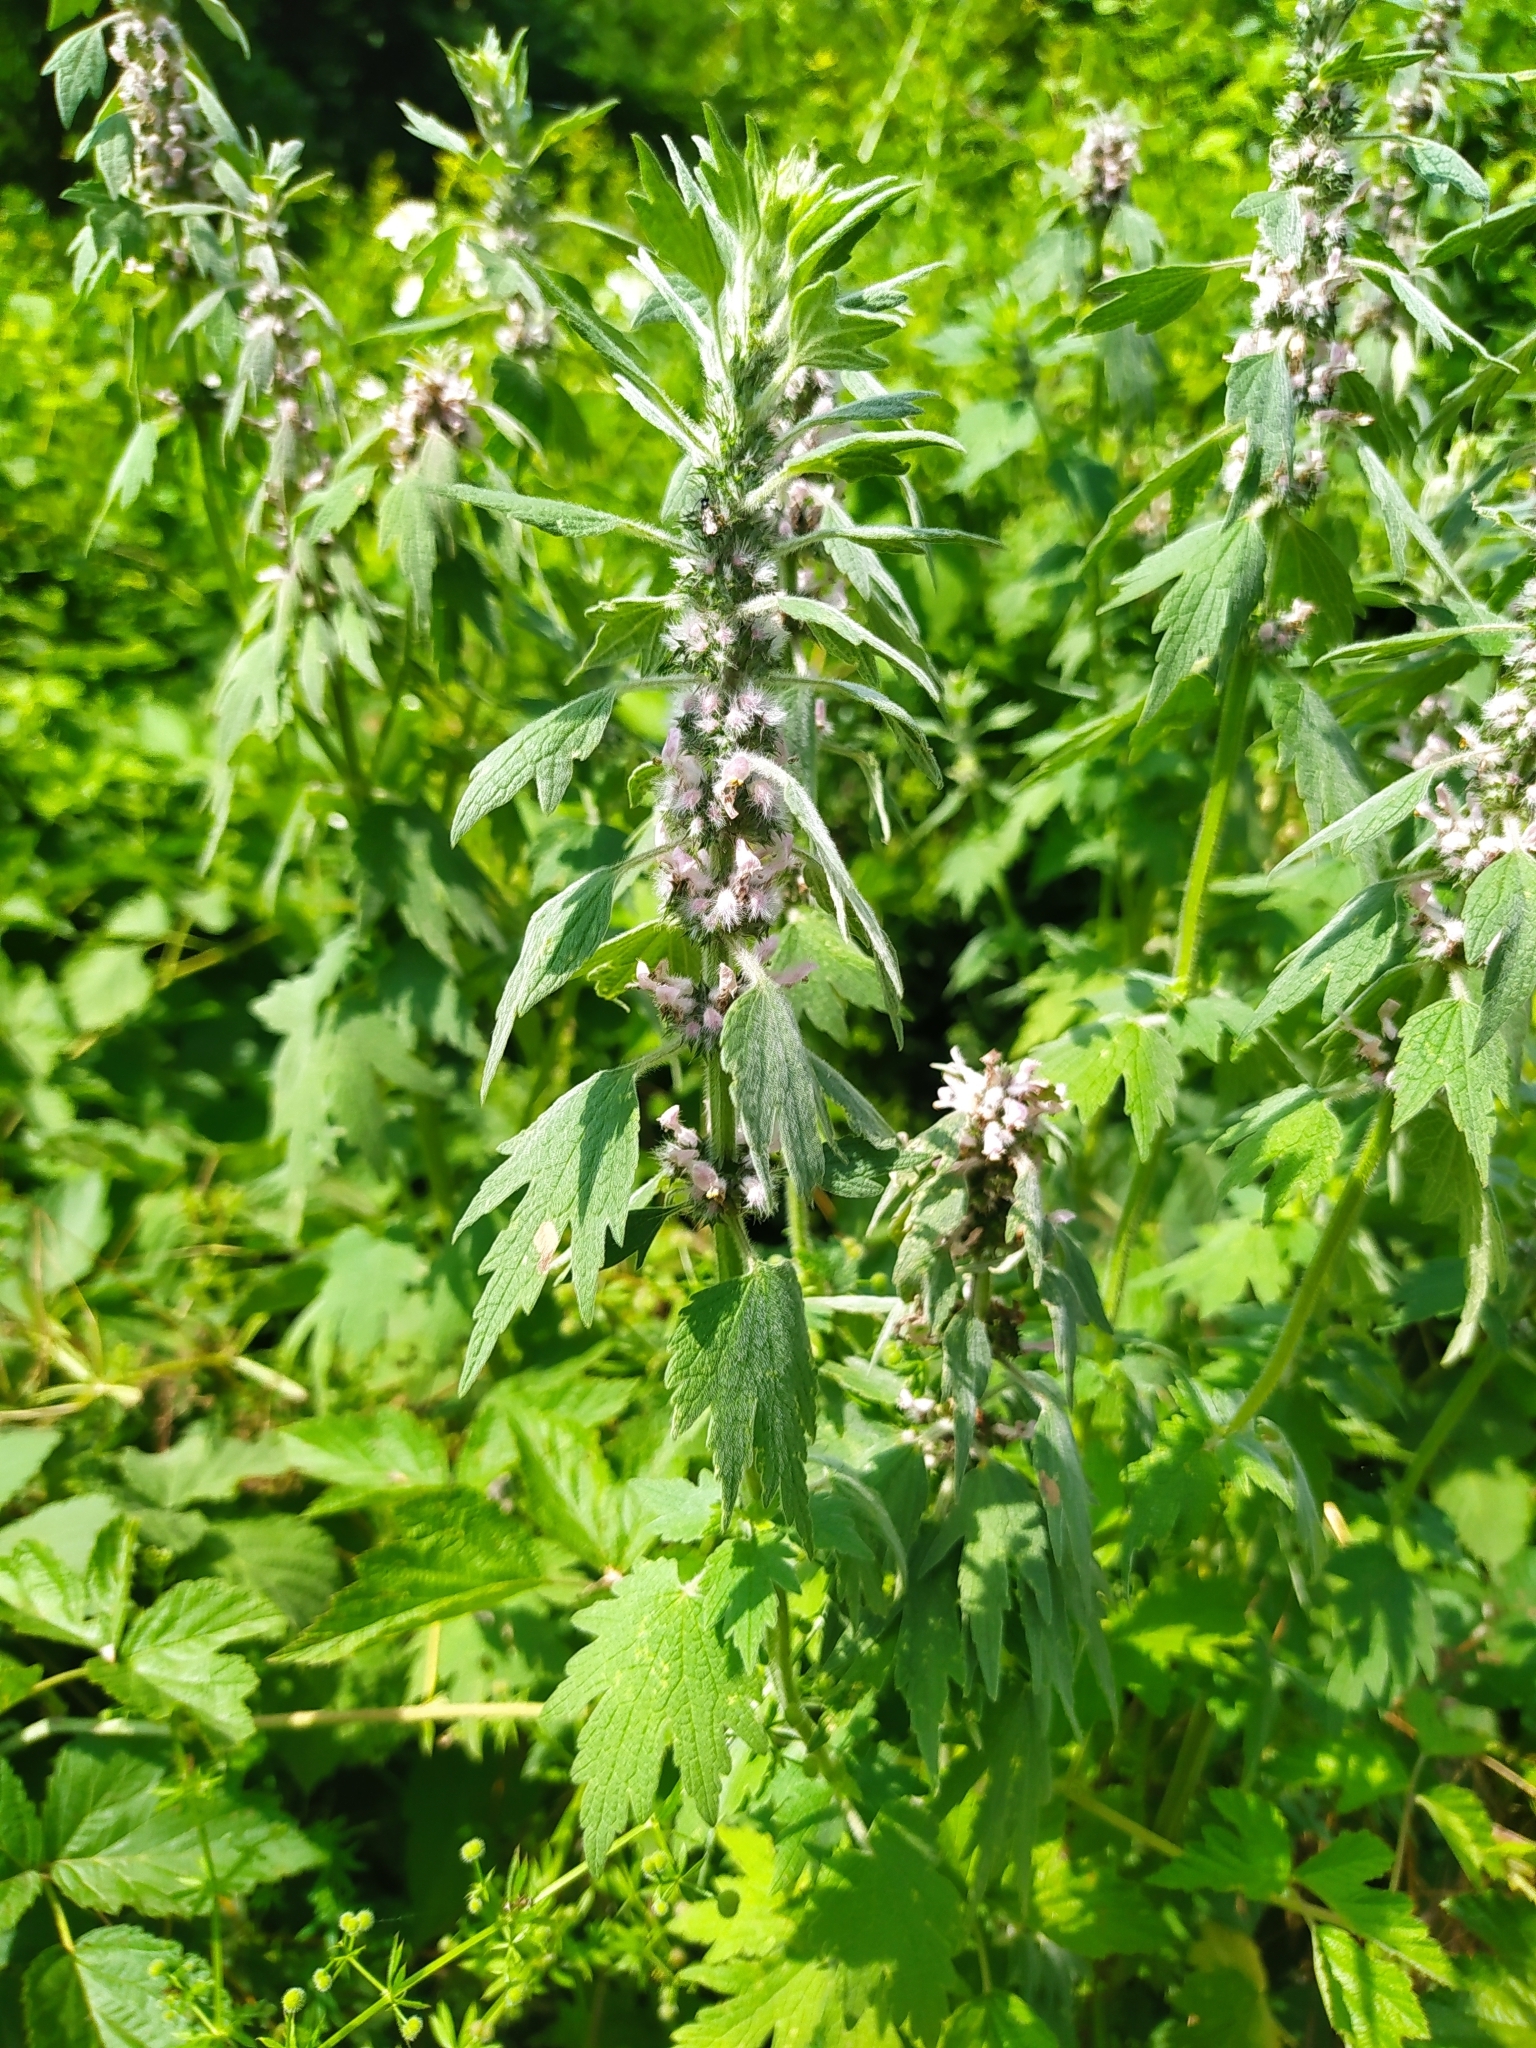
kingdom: Plantae
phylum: Tracheophyta
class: Magnoliopsida
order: Lamiales
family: Lamiaceae
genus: Leonurus
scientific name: Leonurus quinquelobatus
